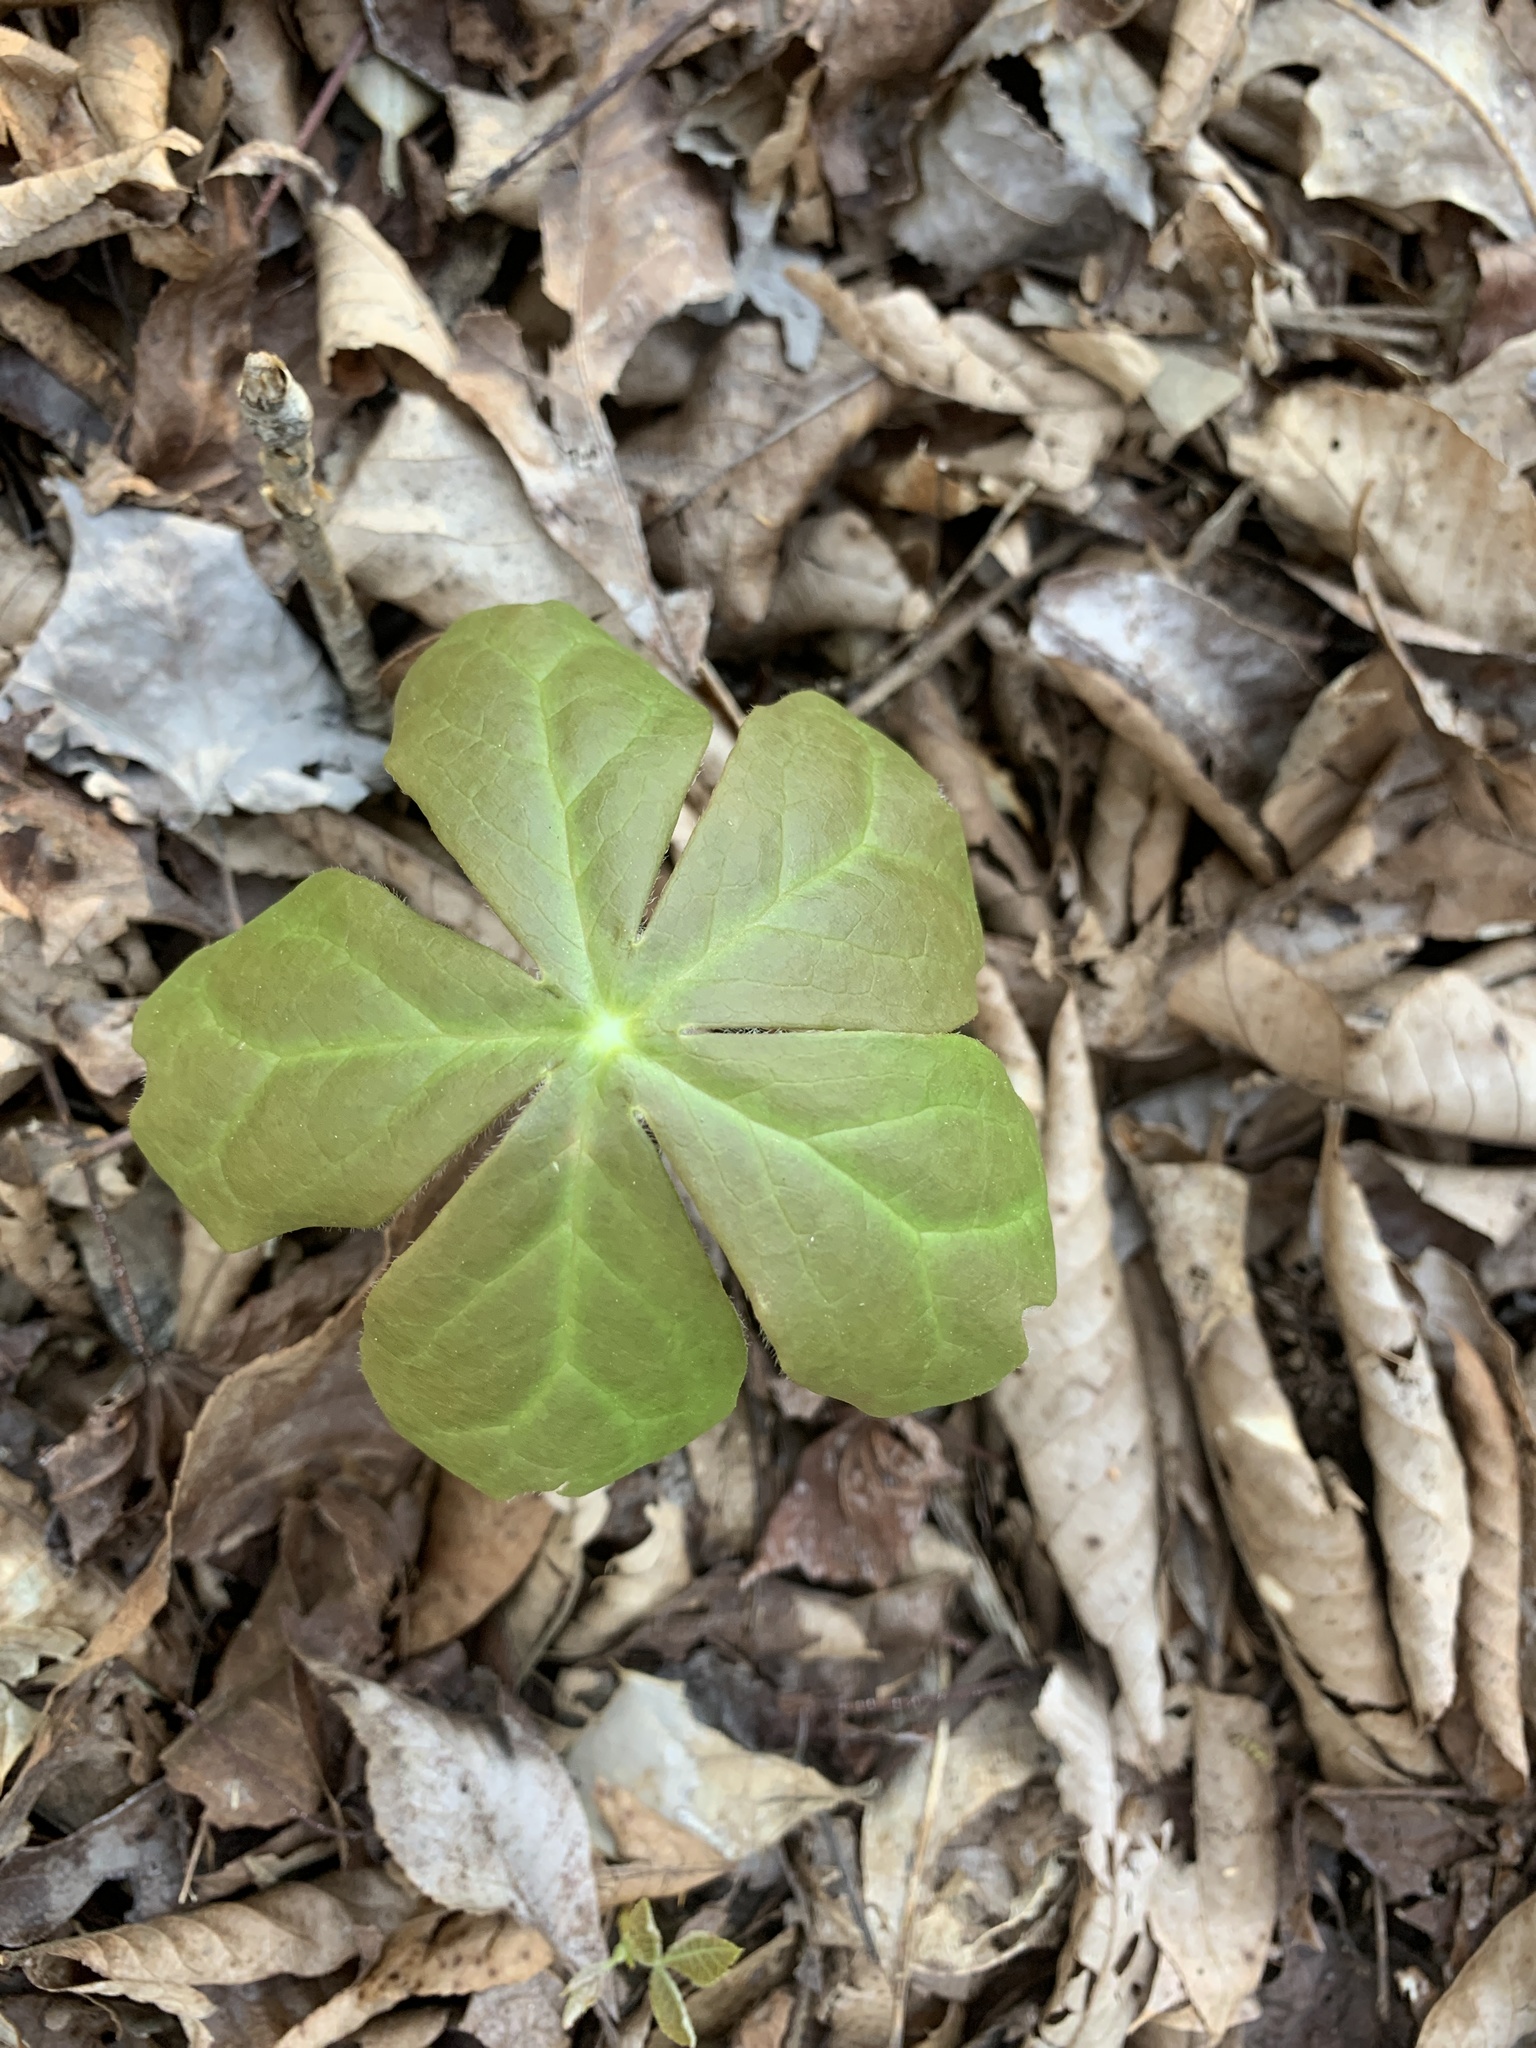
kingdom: Plantae
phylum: Tracheophyta
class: Magnoliopsida
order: Ranunculales
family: Berberidaceae
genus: Podophyllum
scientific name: Podophyllum peltatum
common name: Wild mandrake
